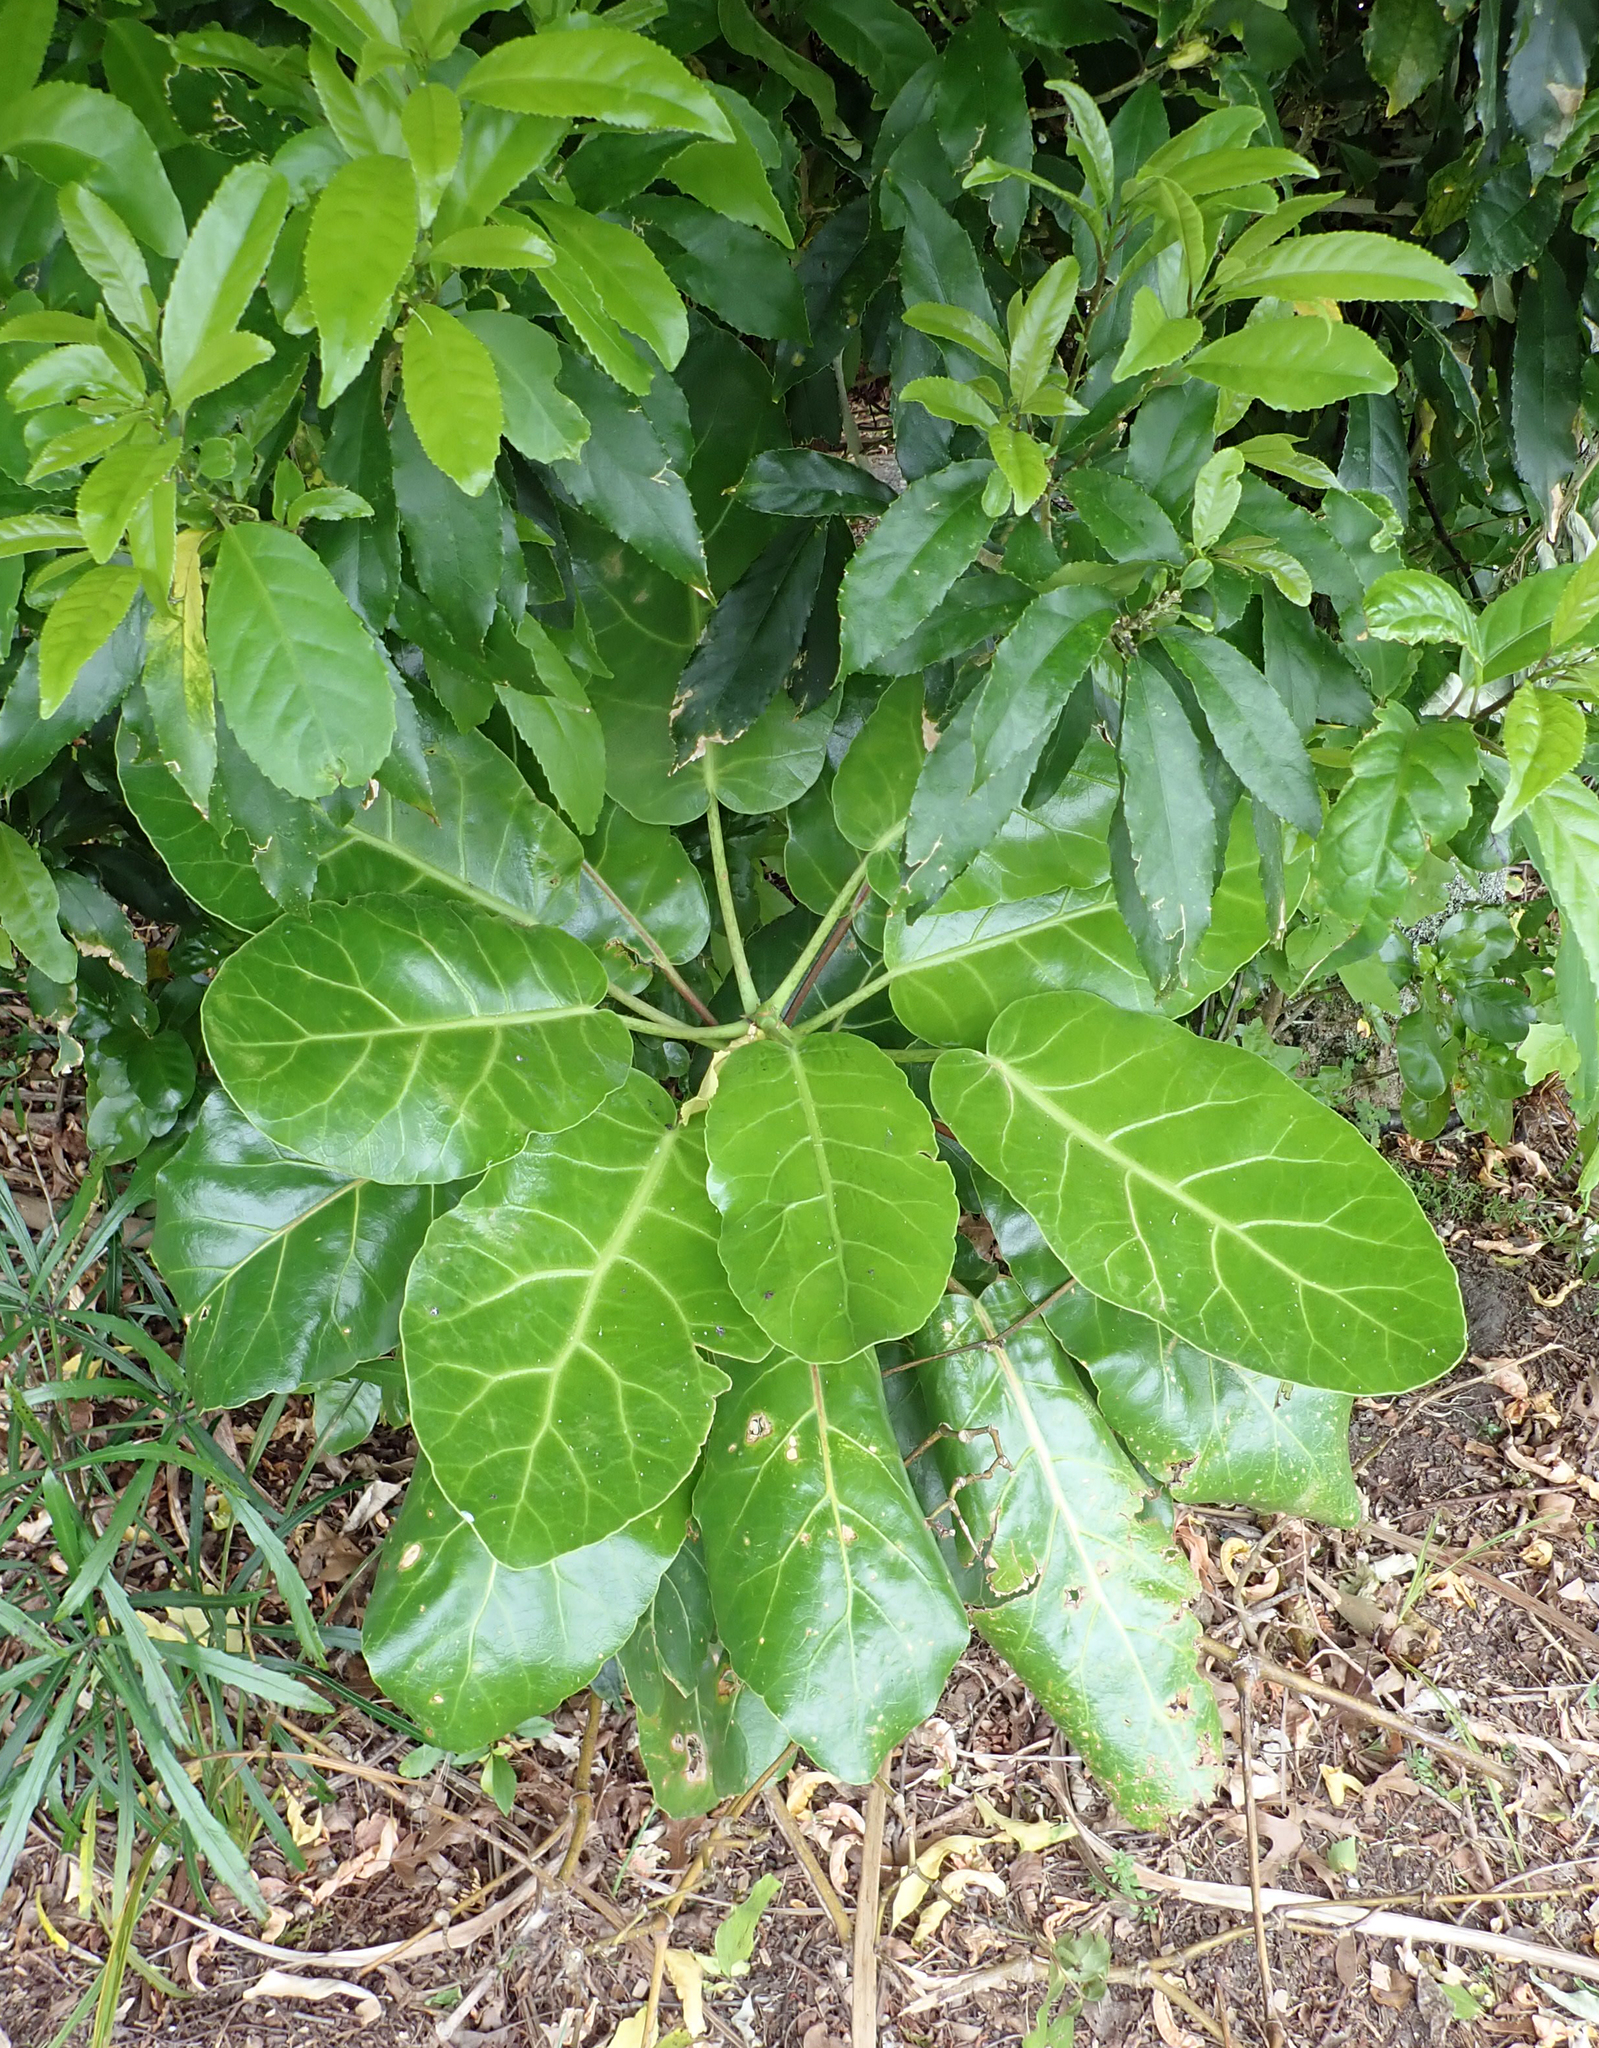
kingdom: Plantae
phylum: Tracheophyta
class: Magnoliopsida
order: Apiales
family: Araliaceae
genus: Meryta
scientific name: Meryta sinclairii
